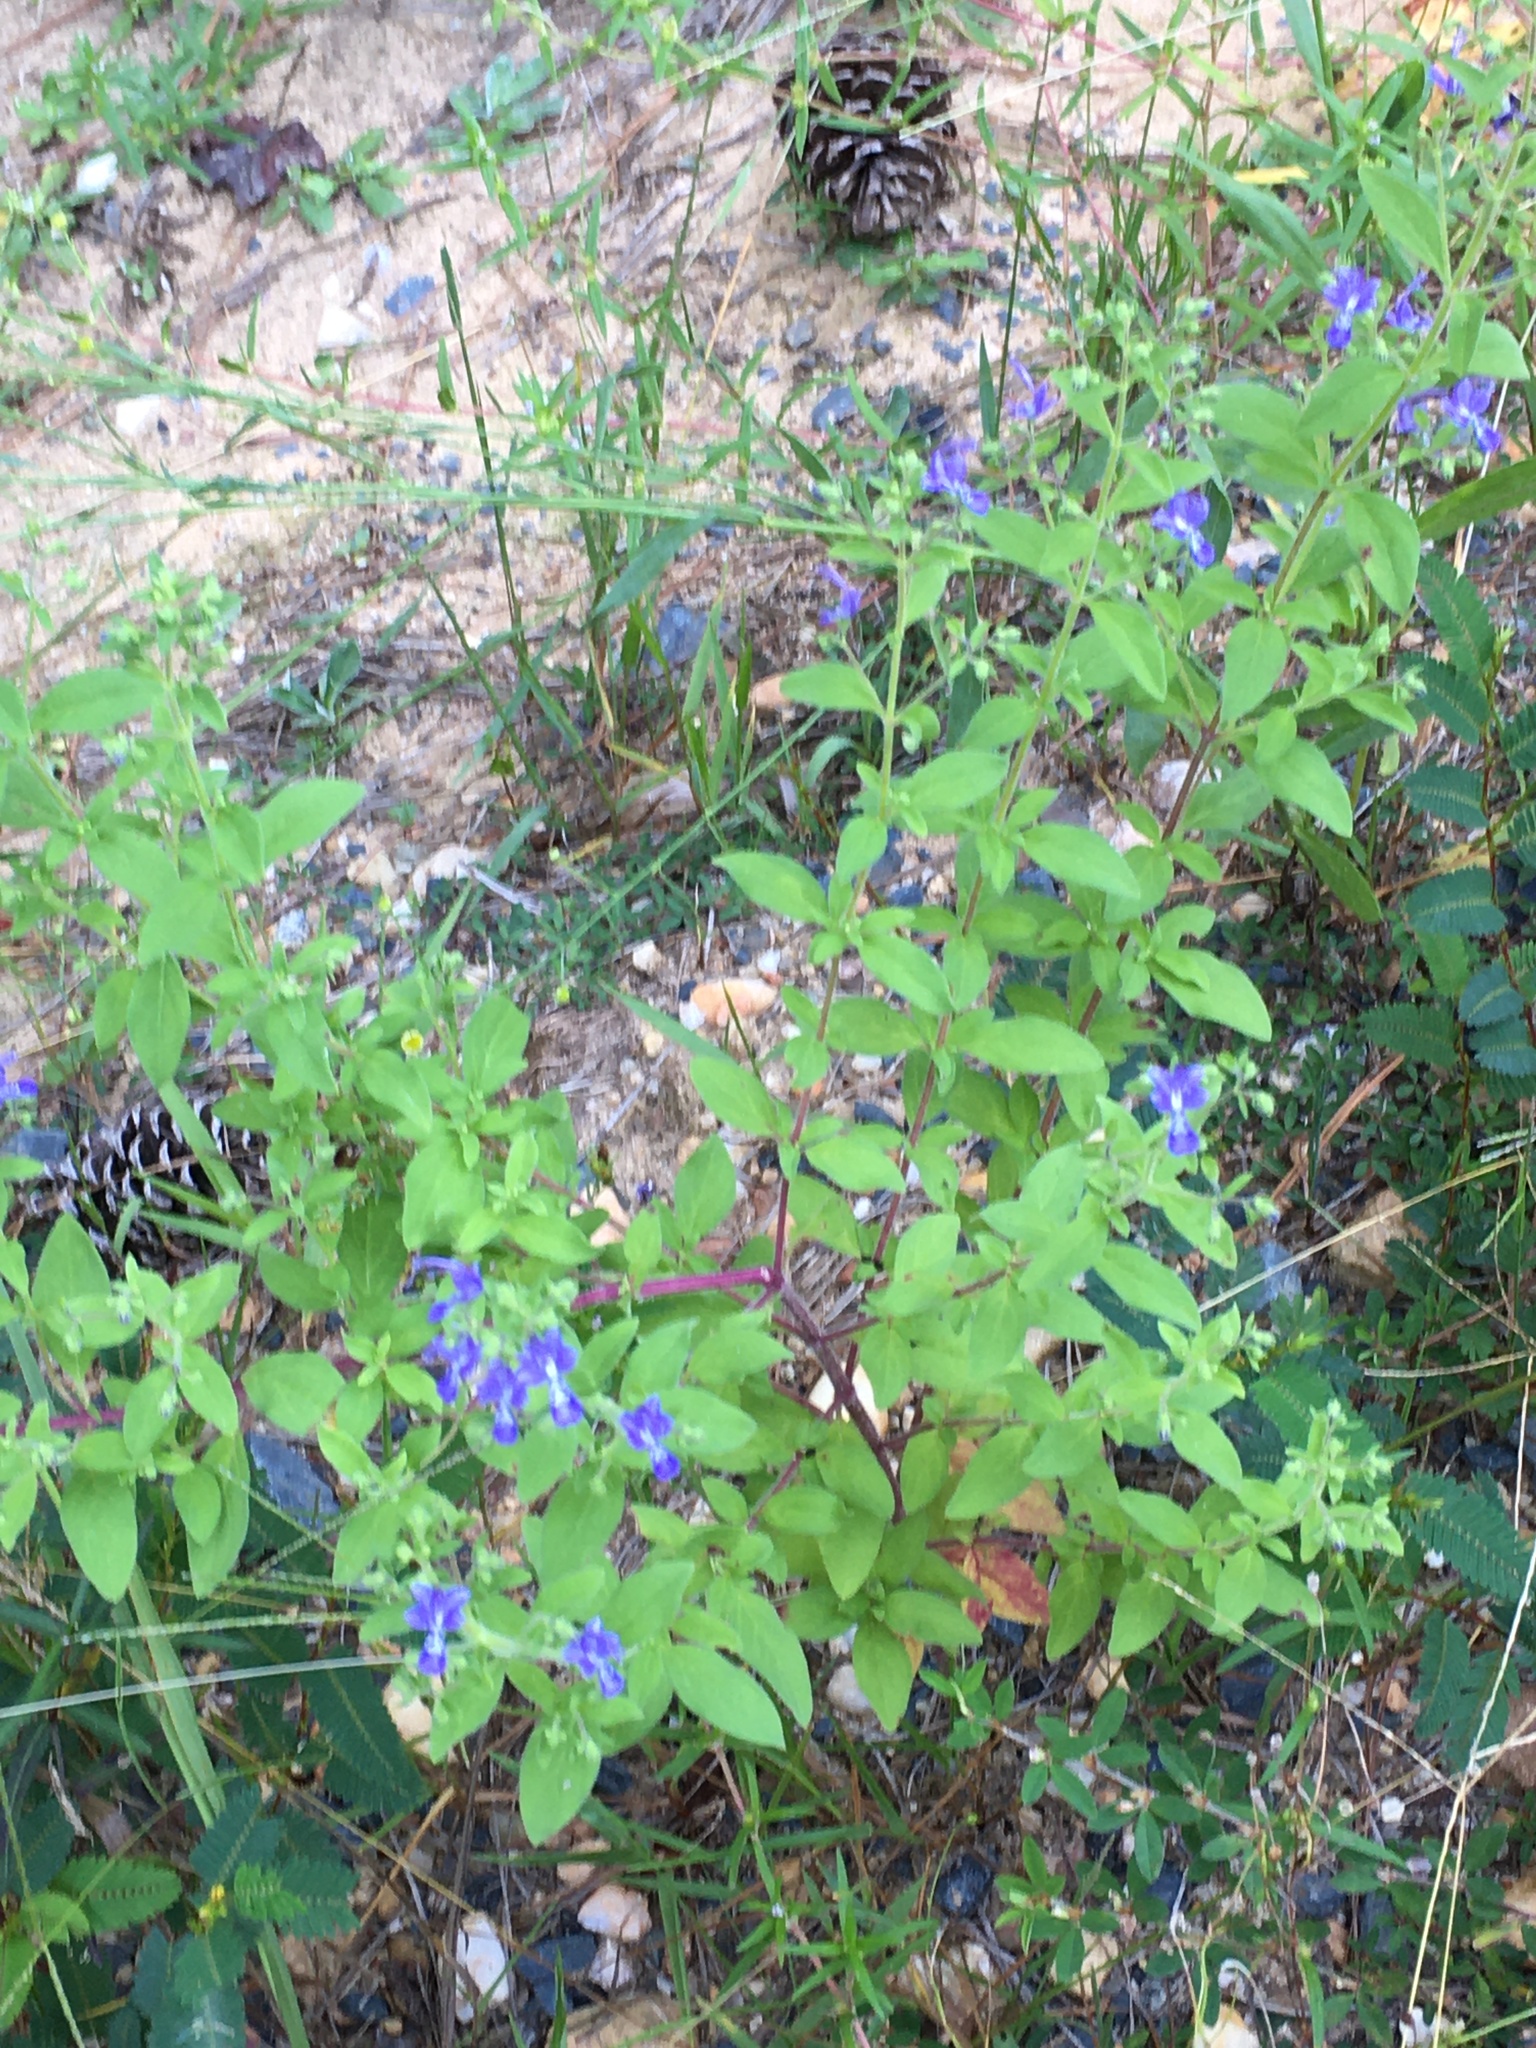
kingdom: Plantae
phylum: Tracheophyta
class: Magnoliopsida
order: Lamiales
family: Lamiaceae
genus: Trichostema
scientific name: Trichostema dichotomum
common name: Bastard pennyroyal
